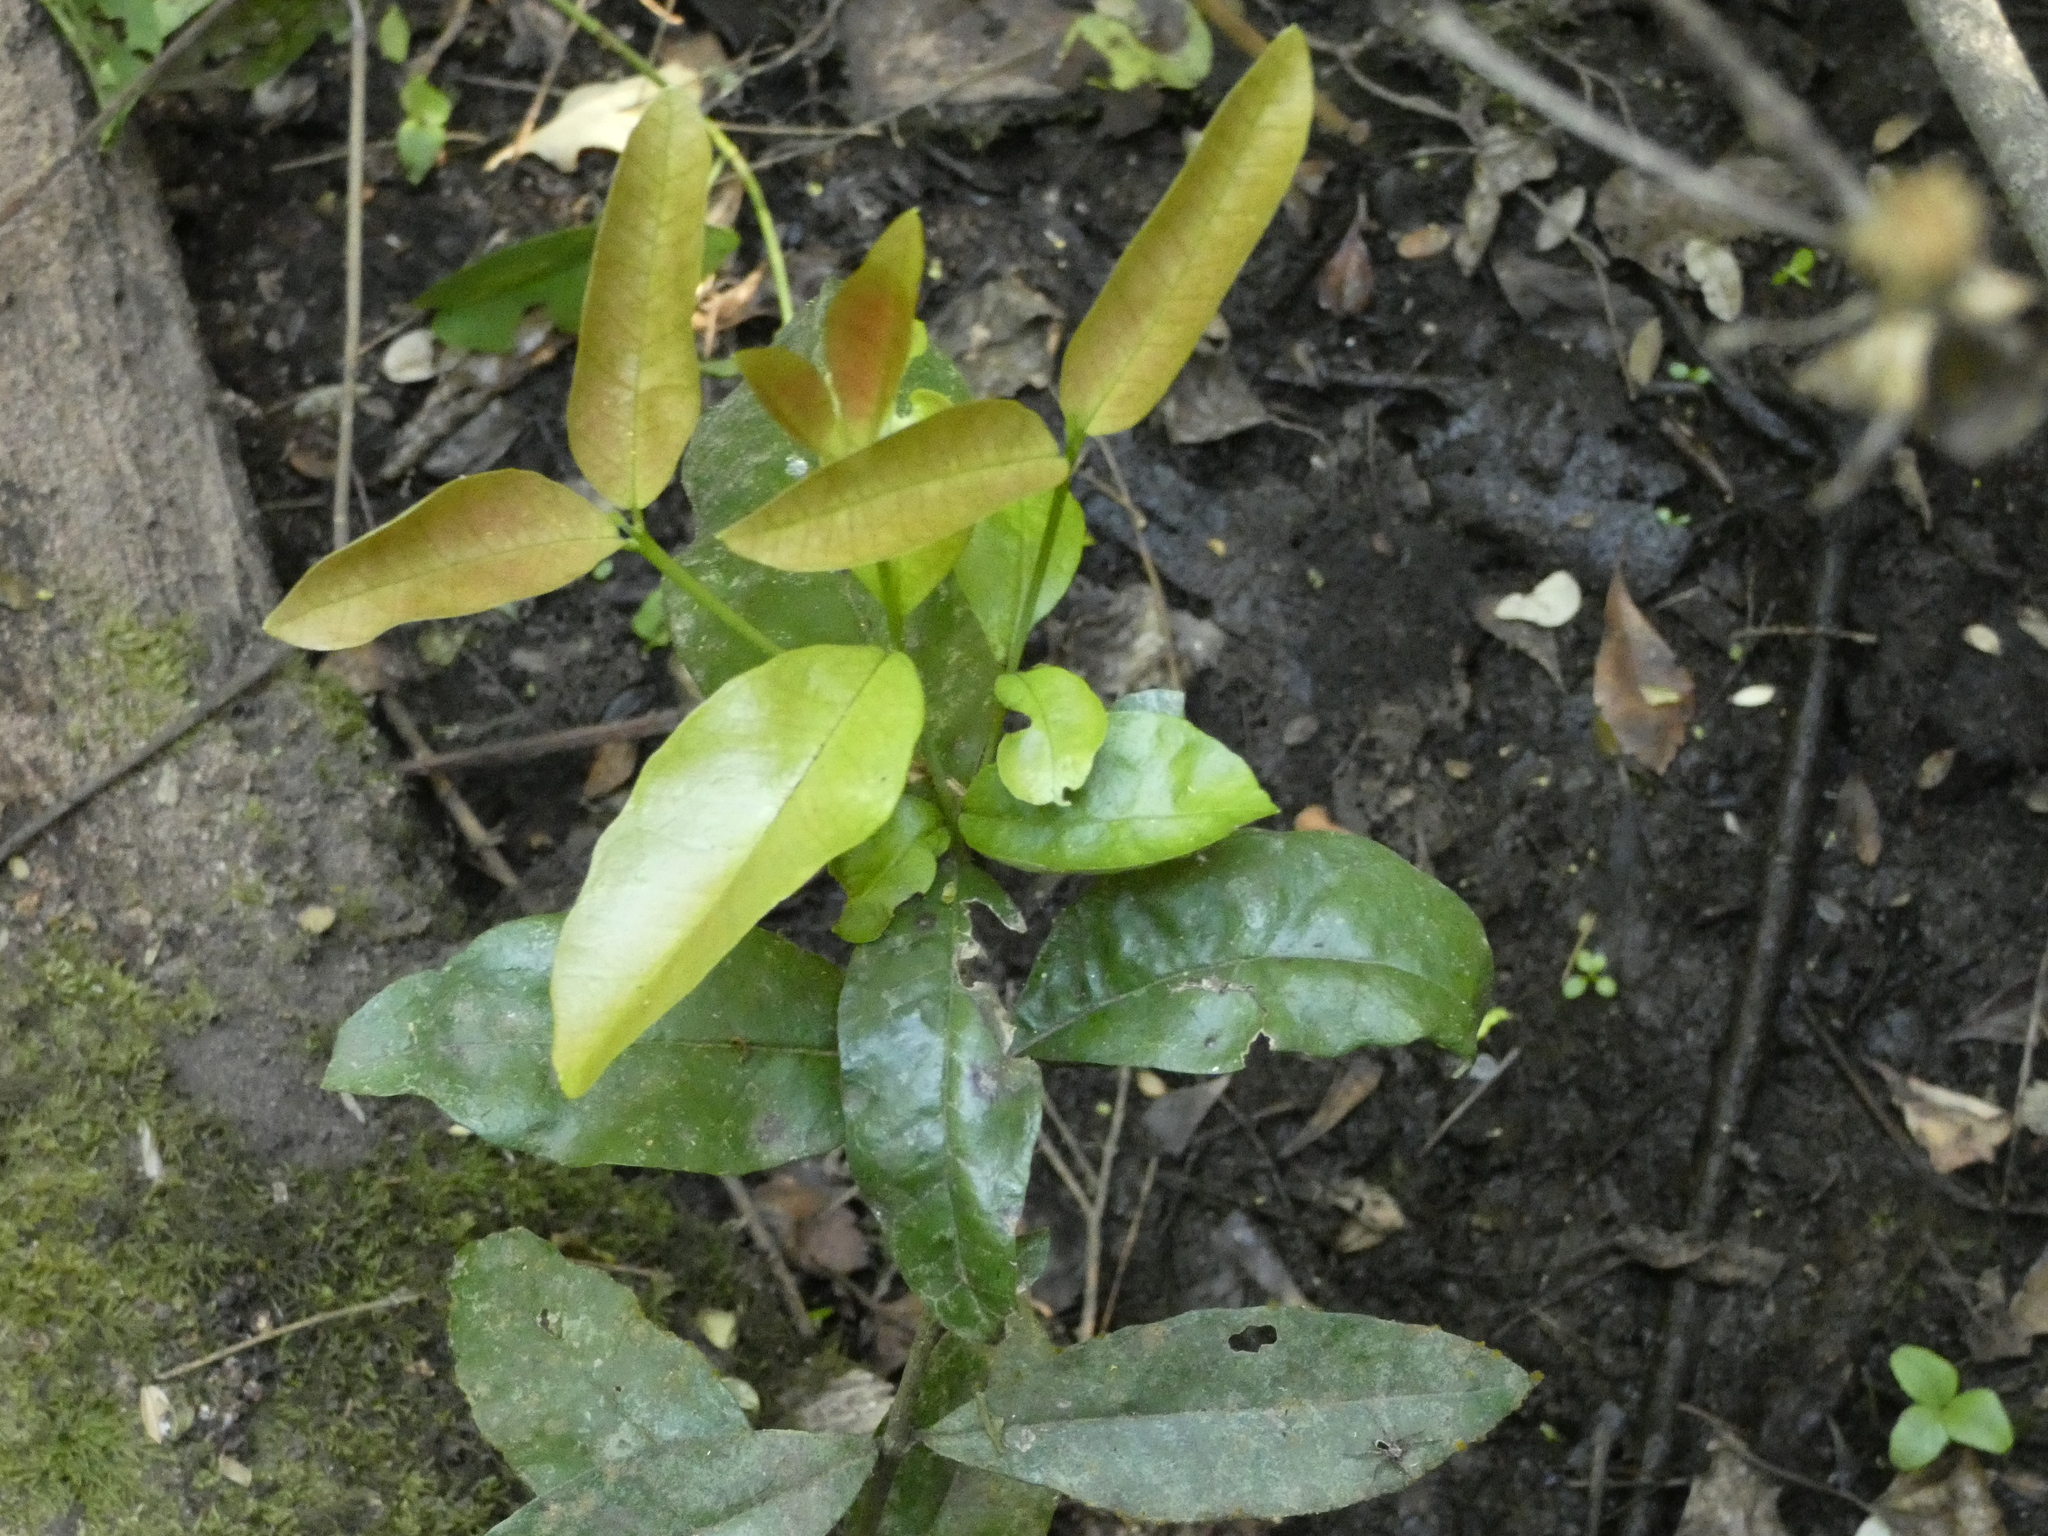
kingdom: Plantae
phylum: Tracheophyta
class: Magnoliopsida
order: Berberidopsidales
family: Aextoxicaceae
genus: Aextoxicon
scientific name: Aextoxicon punctatum
